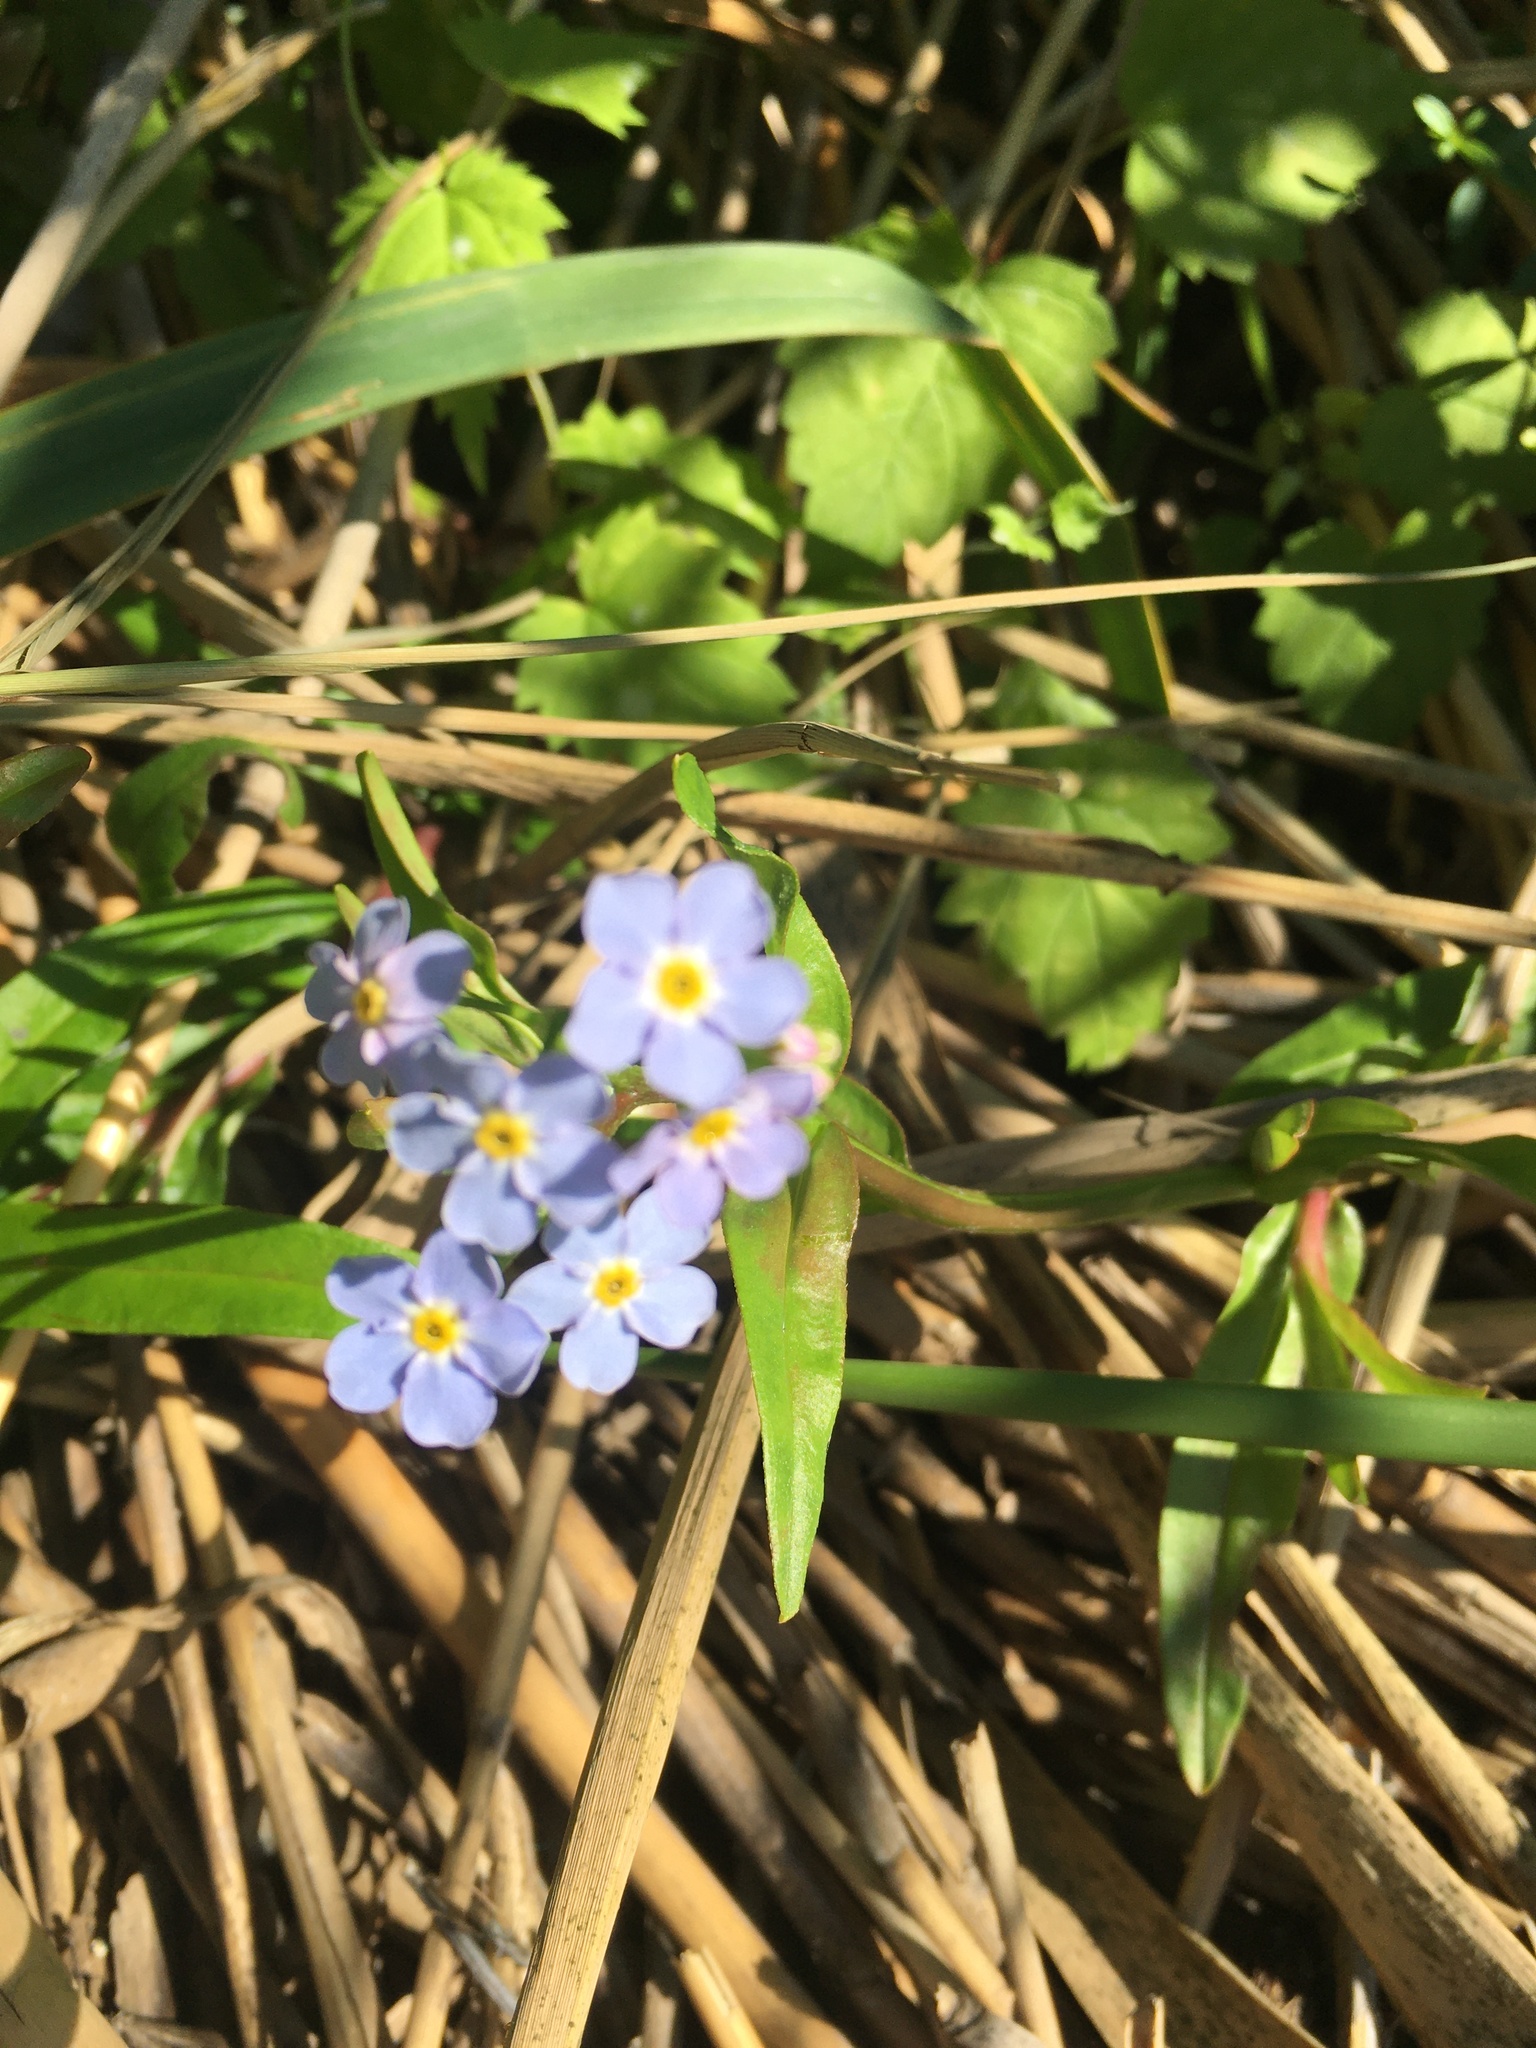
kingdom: Plantae
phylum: Tracheophyta
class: Magnoliopsida
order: Boraginales
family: Boraginaceae
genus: Myosotis
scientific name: Myosotis scorpioides
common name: Water forget-me-not
